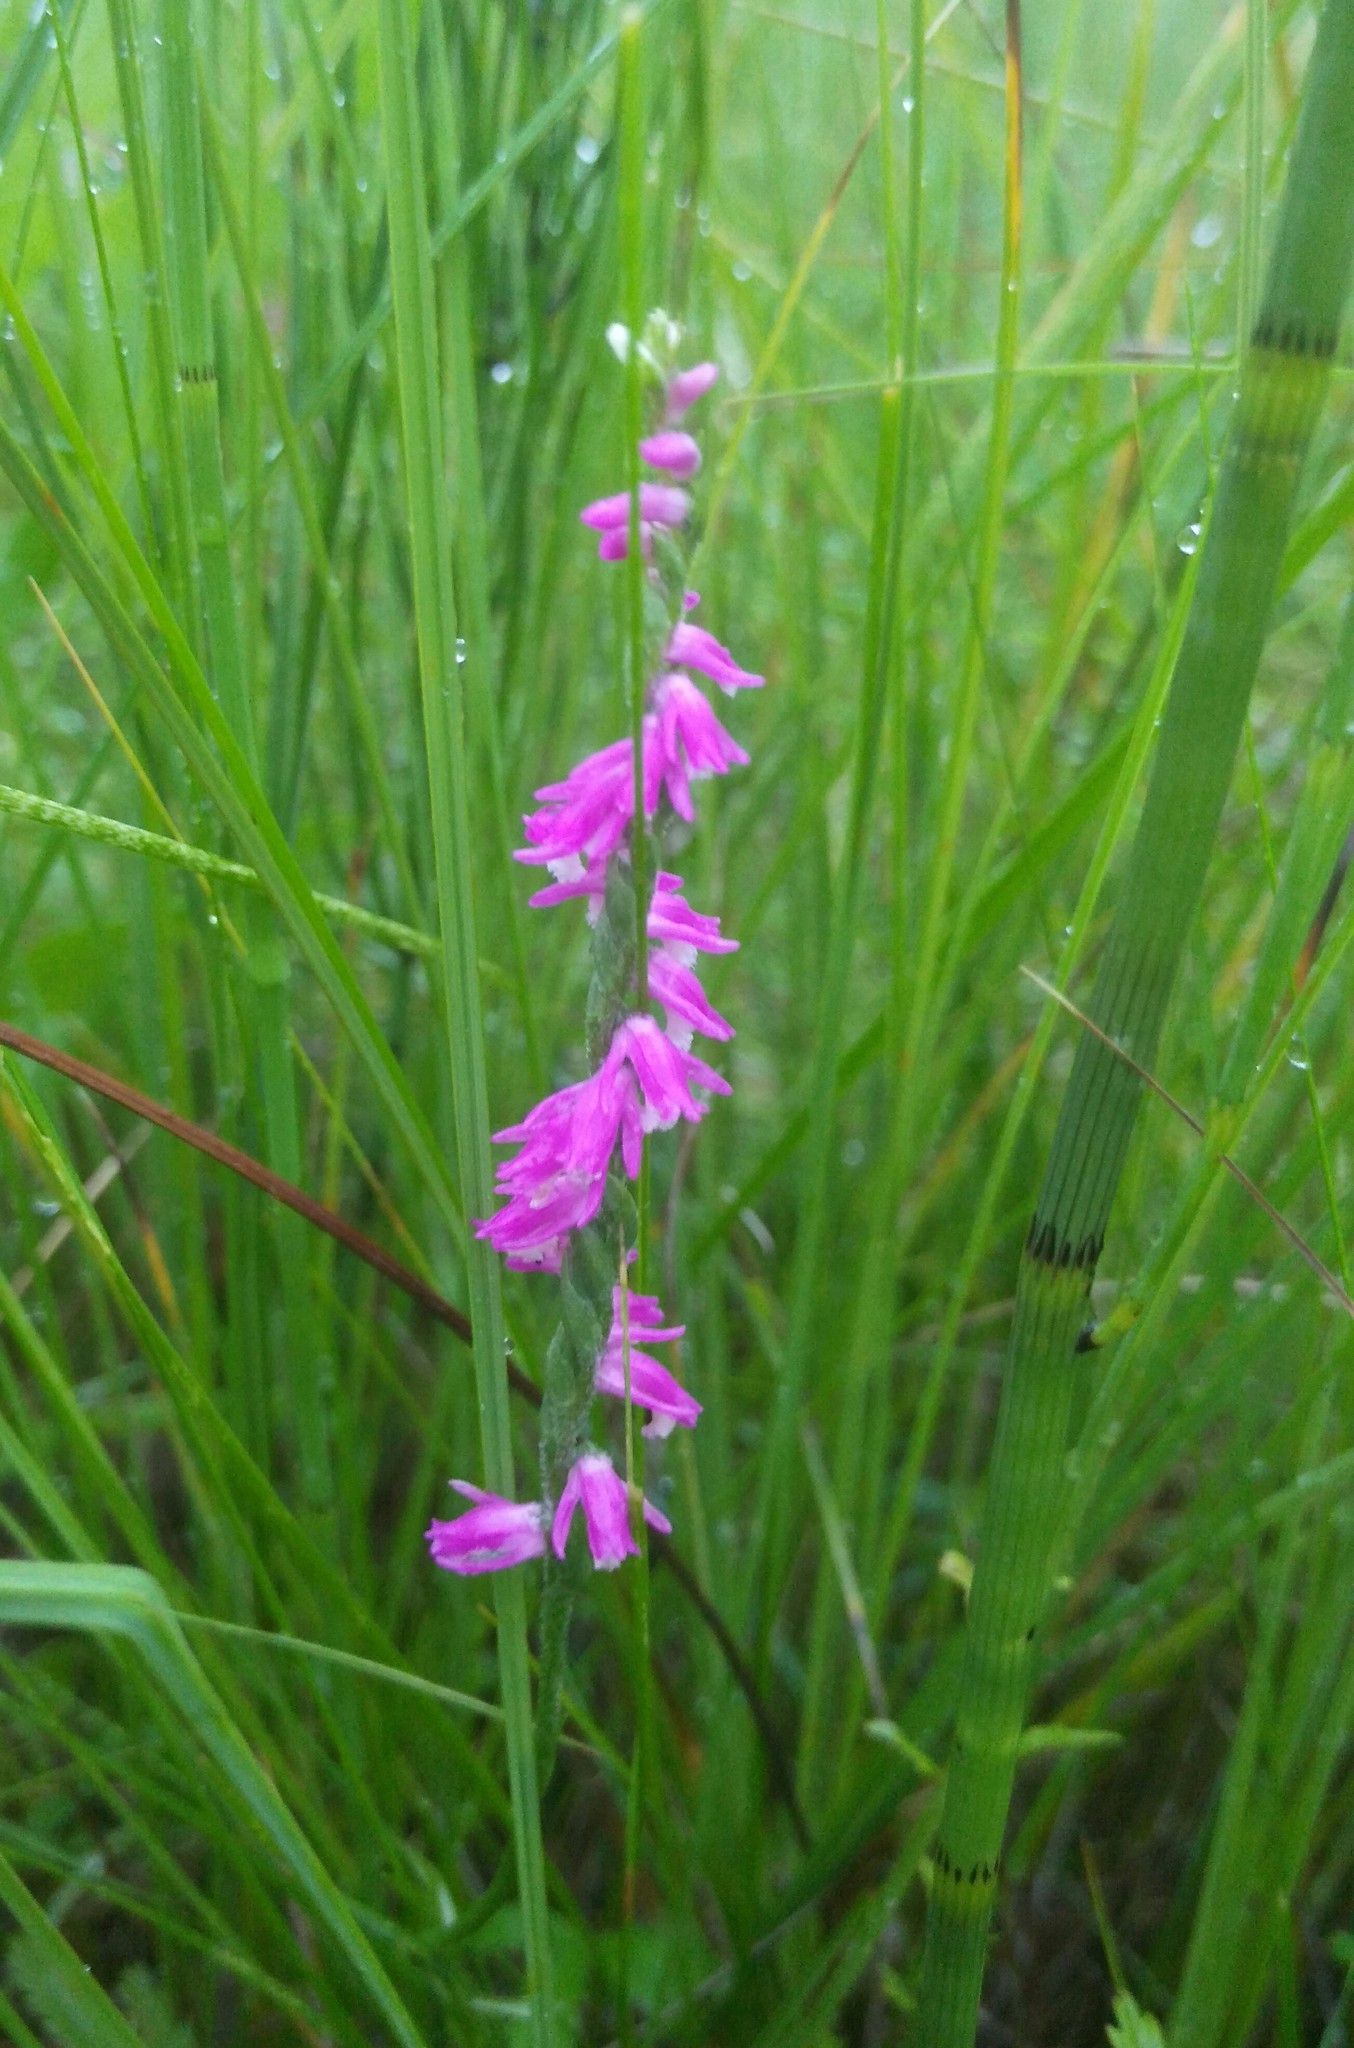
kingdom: Plantae
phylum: Tracheophyta
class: Liliopsida
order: Asparagales
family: Orchidaceae
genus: Spiranthes
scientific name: Spiranthes australis
